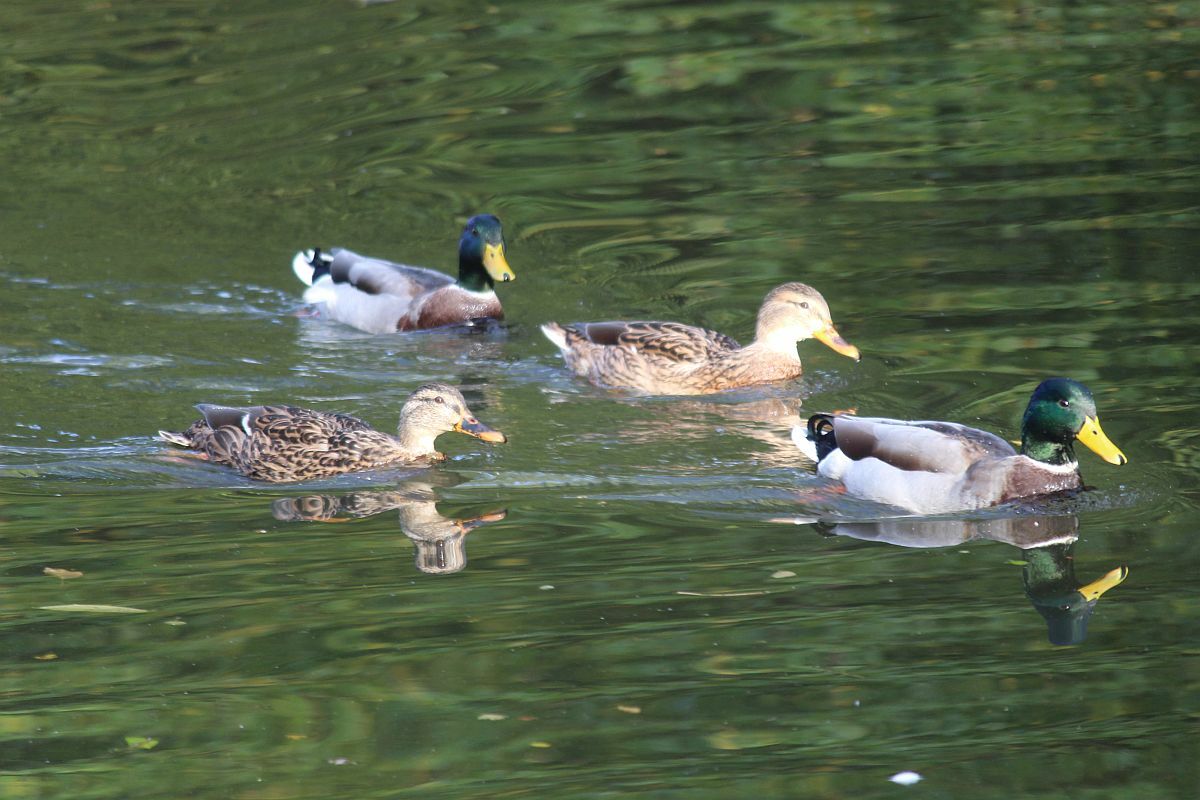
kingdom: Animalia
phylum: Chordata
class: Aves
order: Anseriformes
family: Anatidae
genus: Anas
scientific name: Anas platyrhynchos
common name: Mallard
